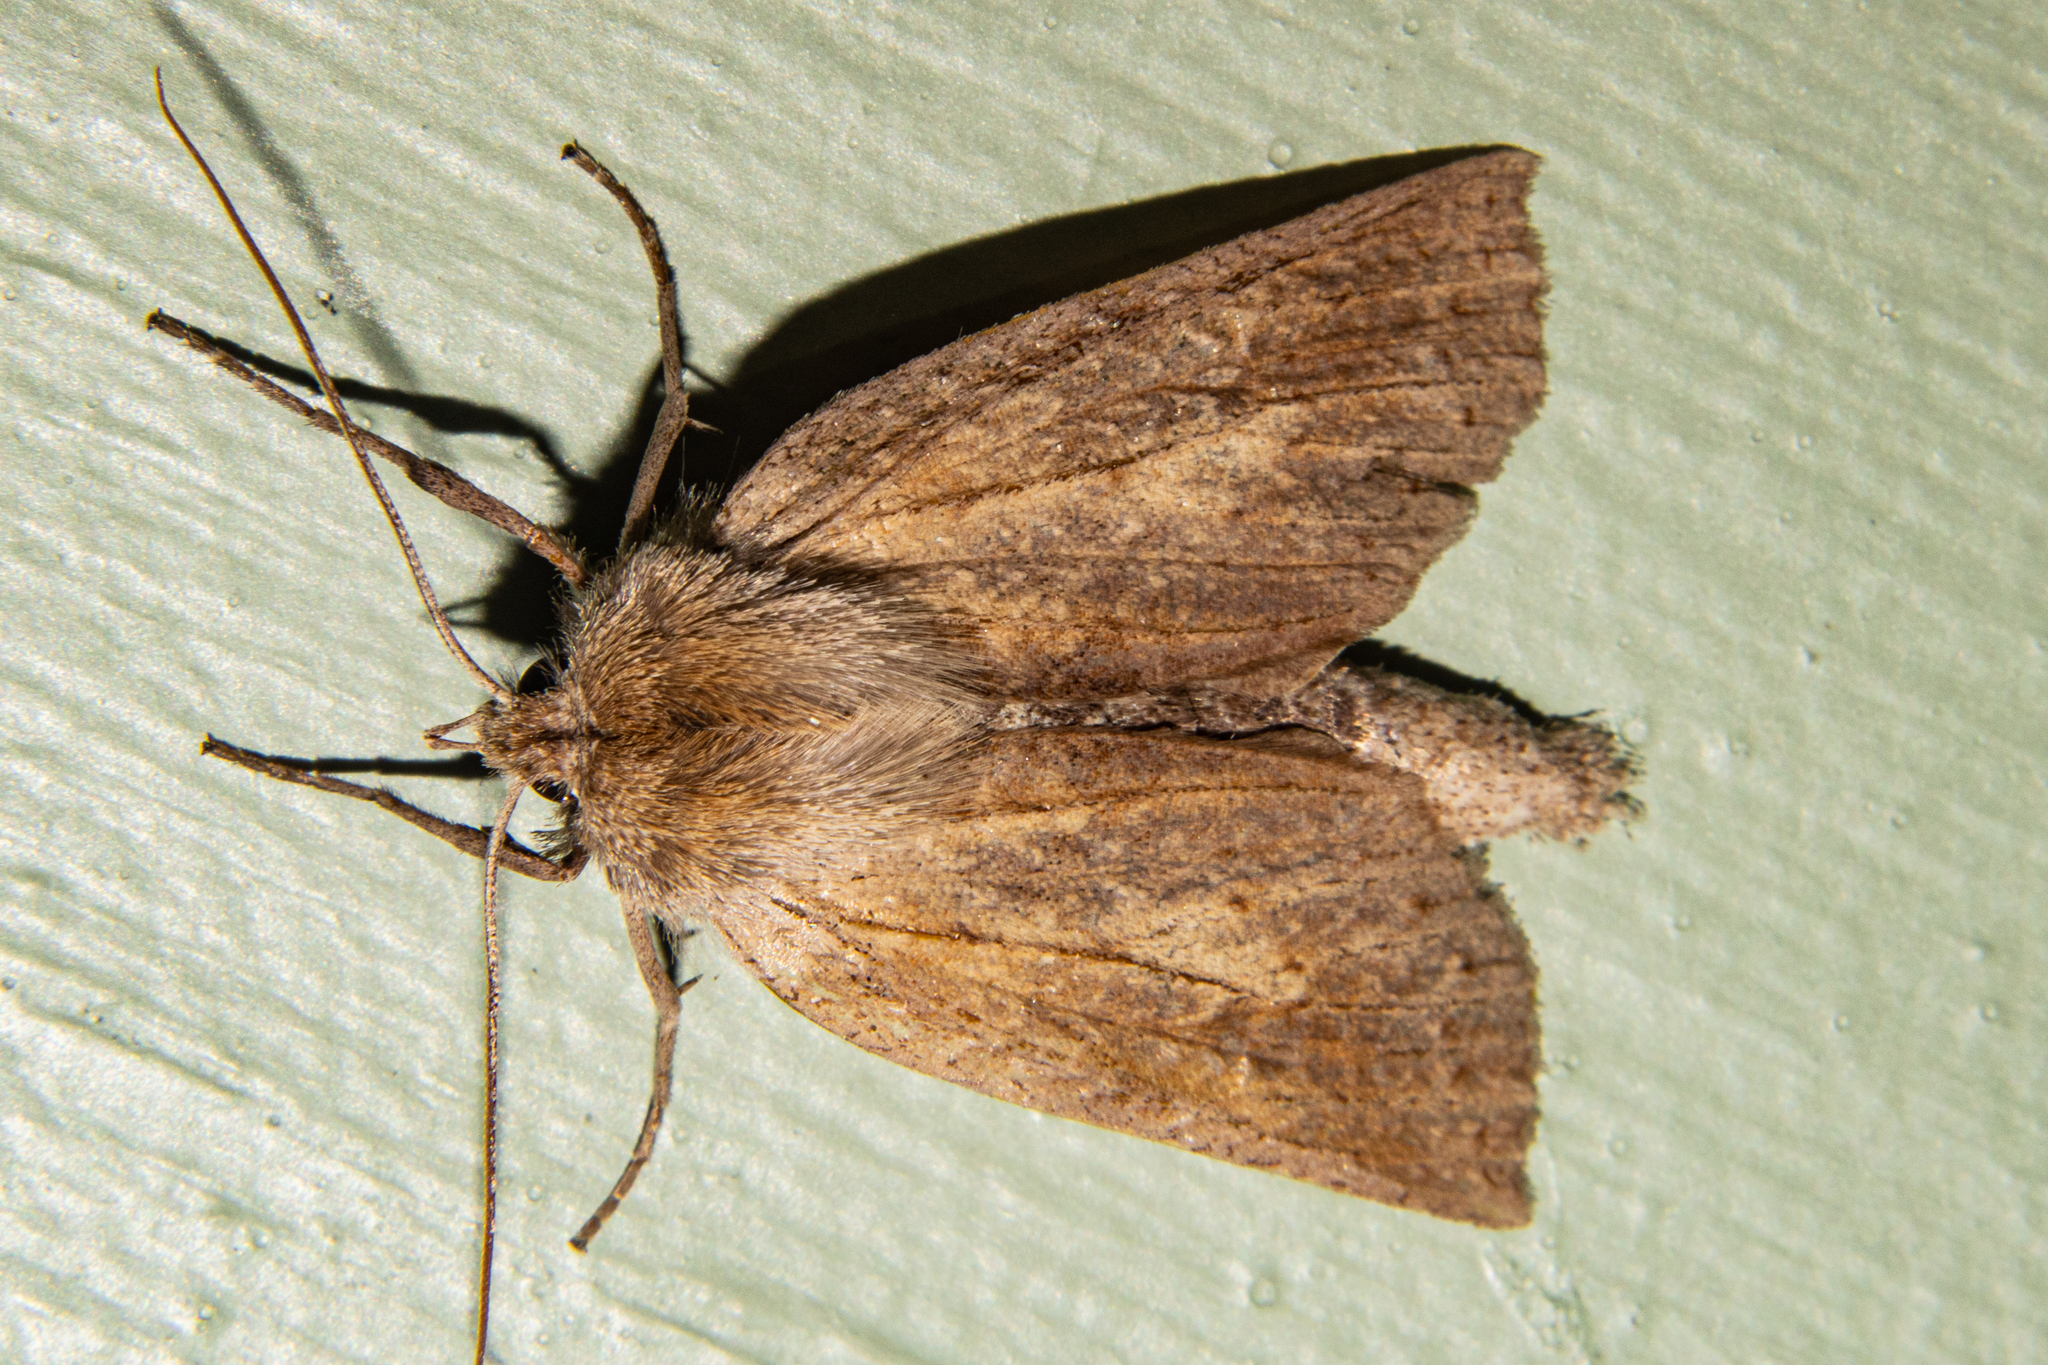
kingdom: Animalia
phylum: Arthropoda
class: Insecta
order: Lepidoptera
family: Geometridae
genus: Declana
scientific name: Declana leptomera
